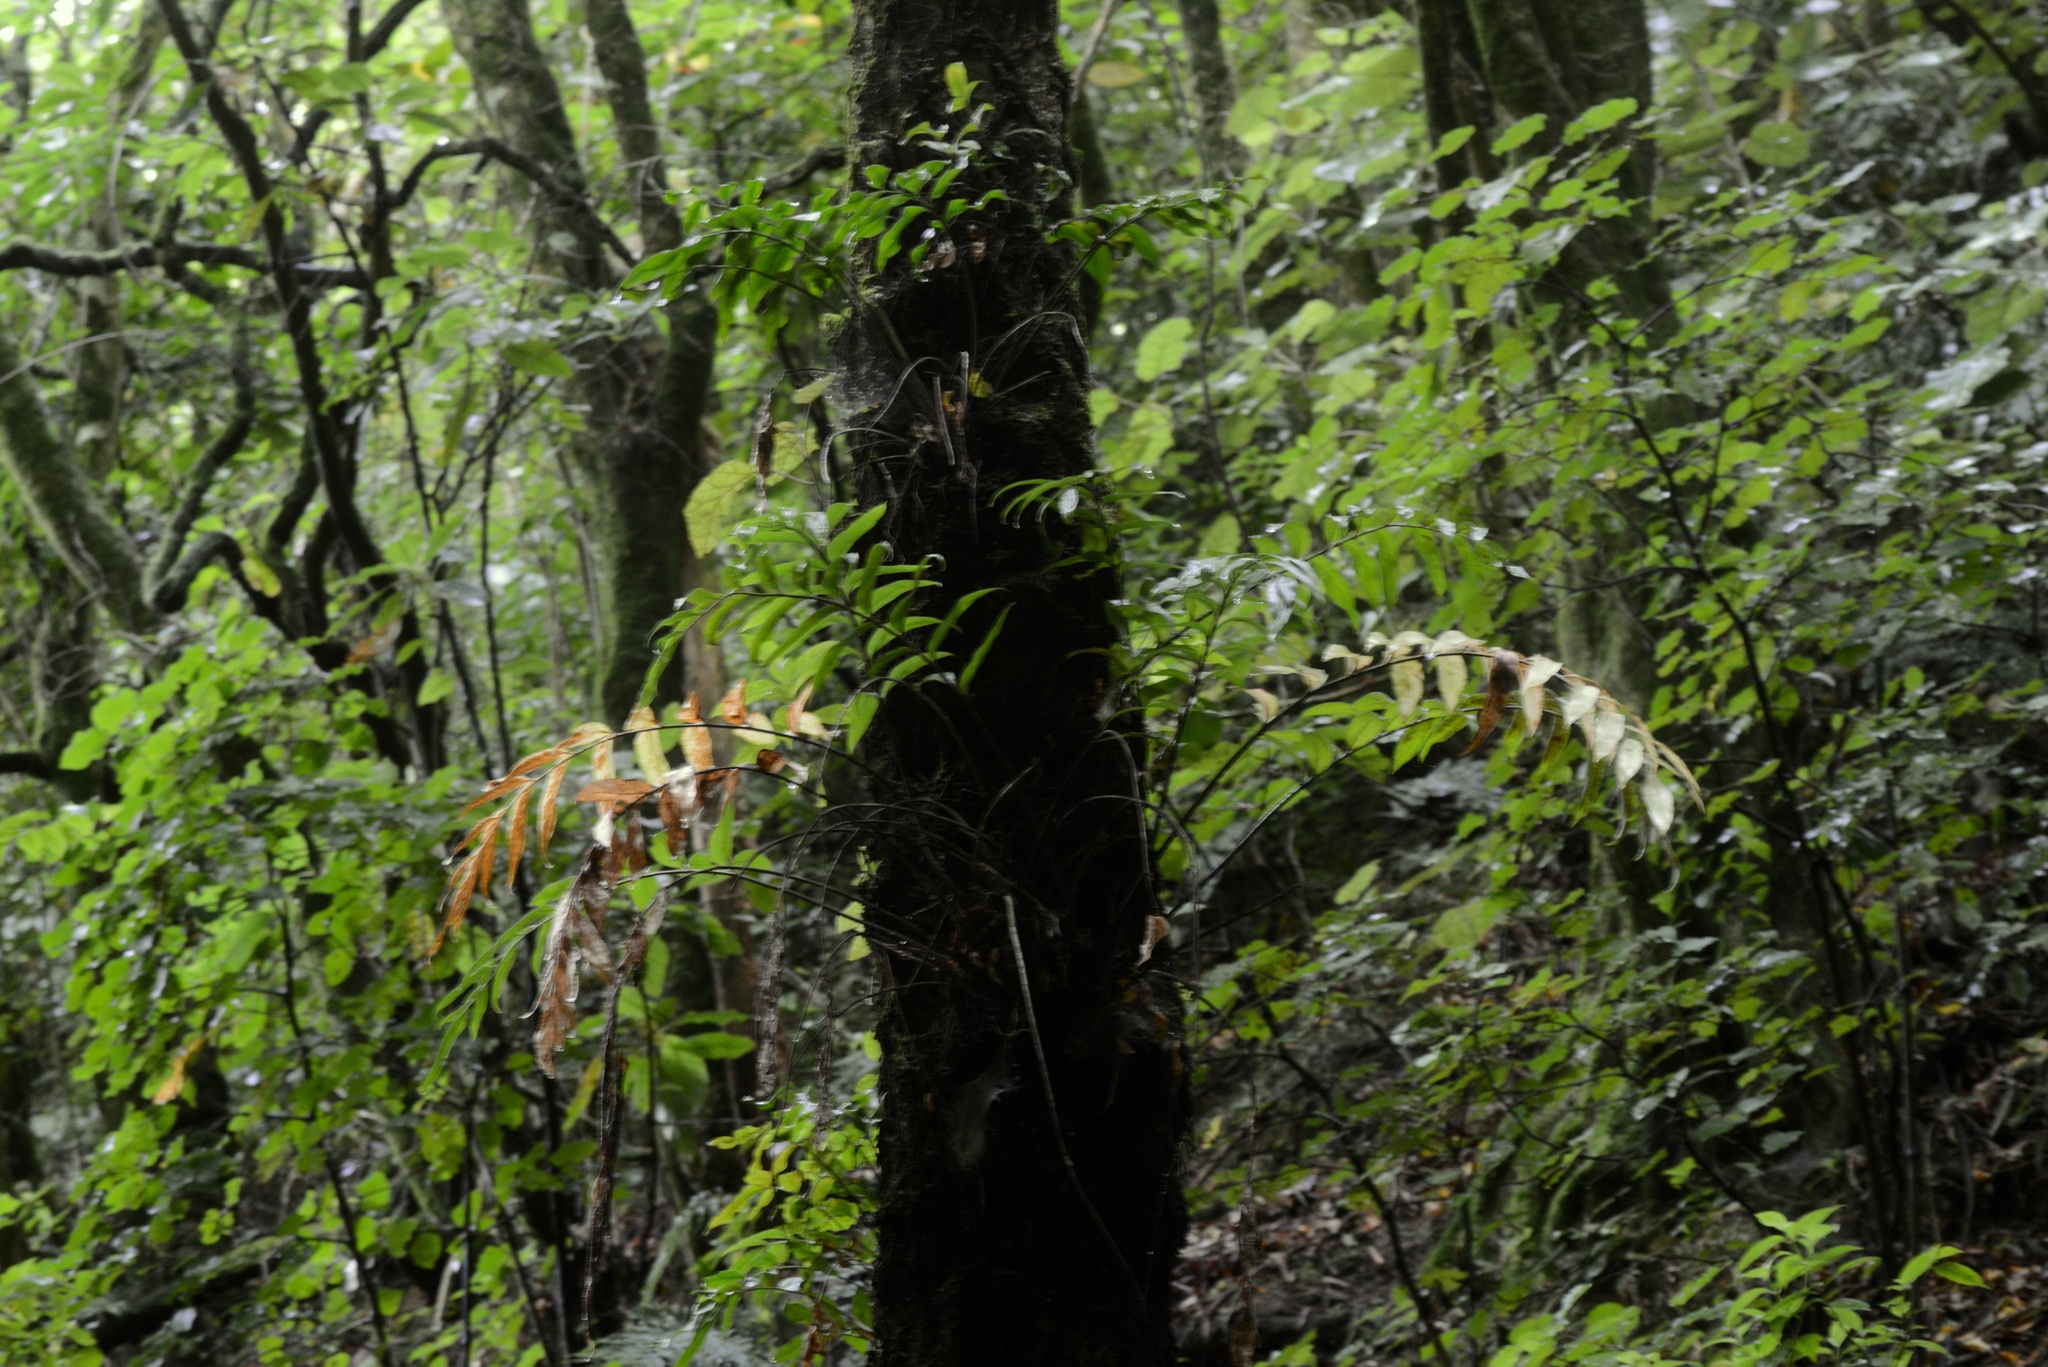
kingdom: Plantae
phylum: Tracheophyta
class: Polypodiopsida
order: Polypodiales
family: Aspleniaceae
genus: Asplenium
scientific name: Asplenium oblongifolium
